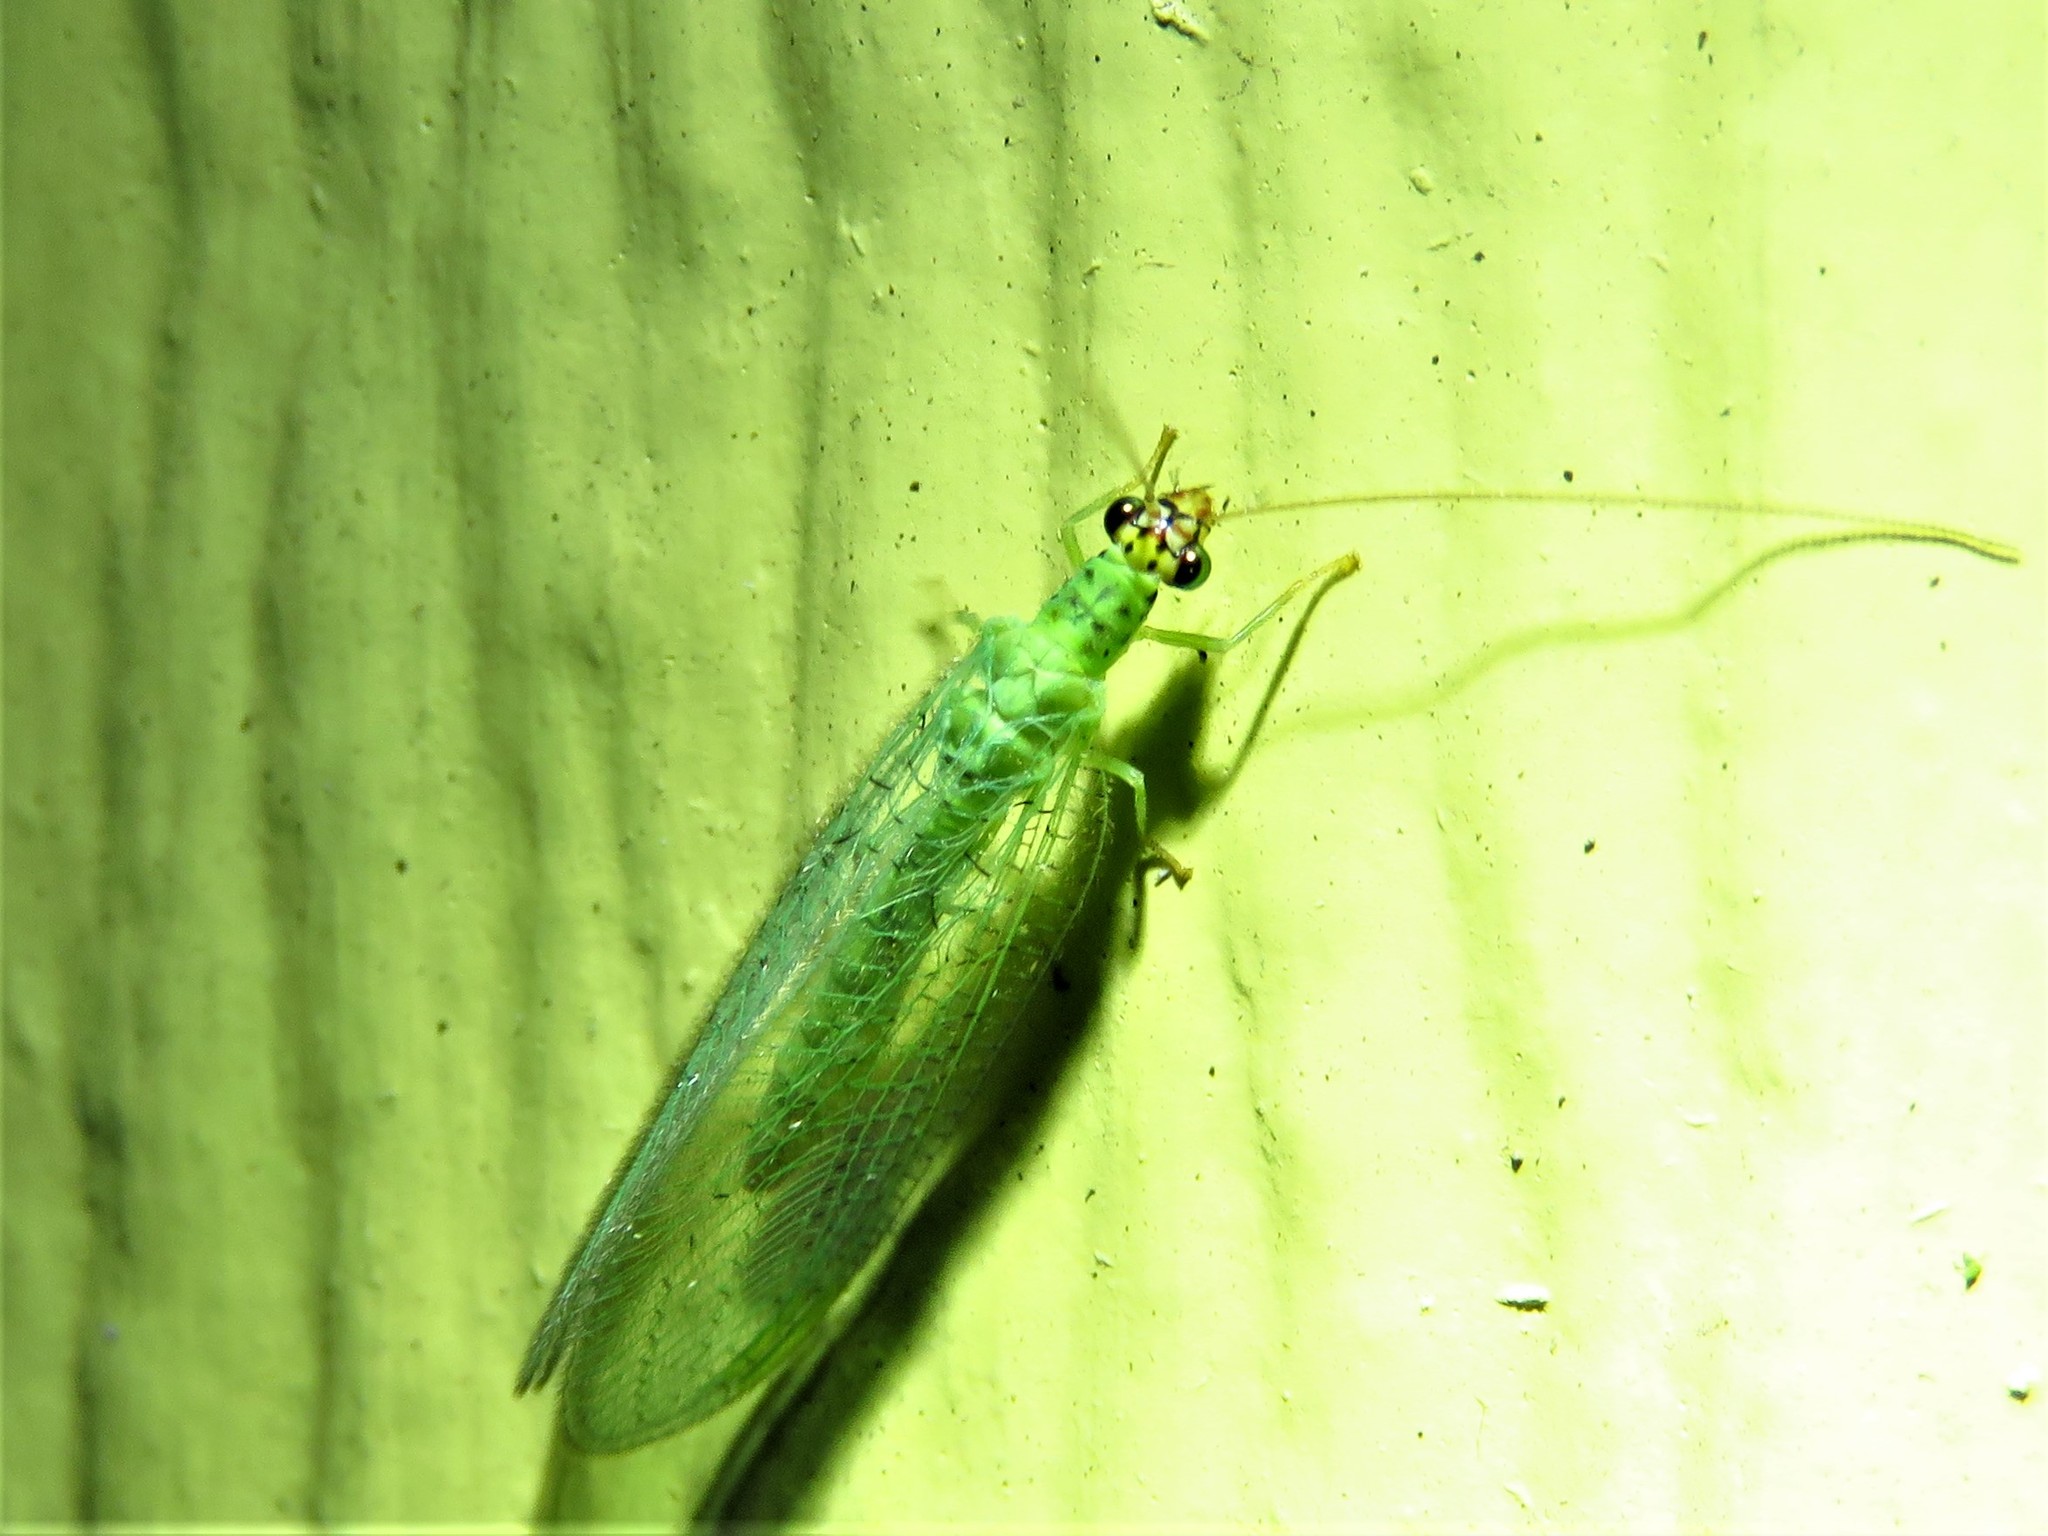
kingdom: Animalia
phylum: Arthropoda
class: Insecta
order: Neuroptera
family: Chrysopidae
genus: Chrysopa
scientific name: Chrysopa oculata
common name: Golden-eyed lacewing
